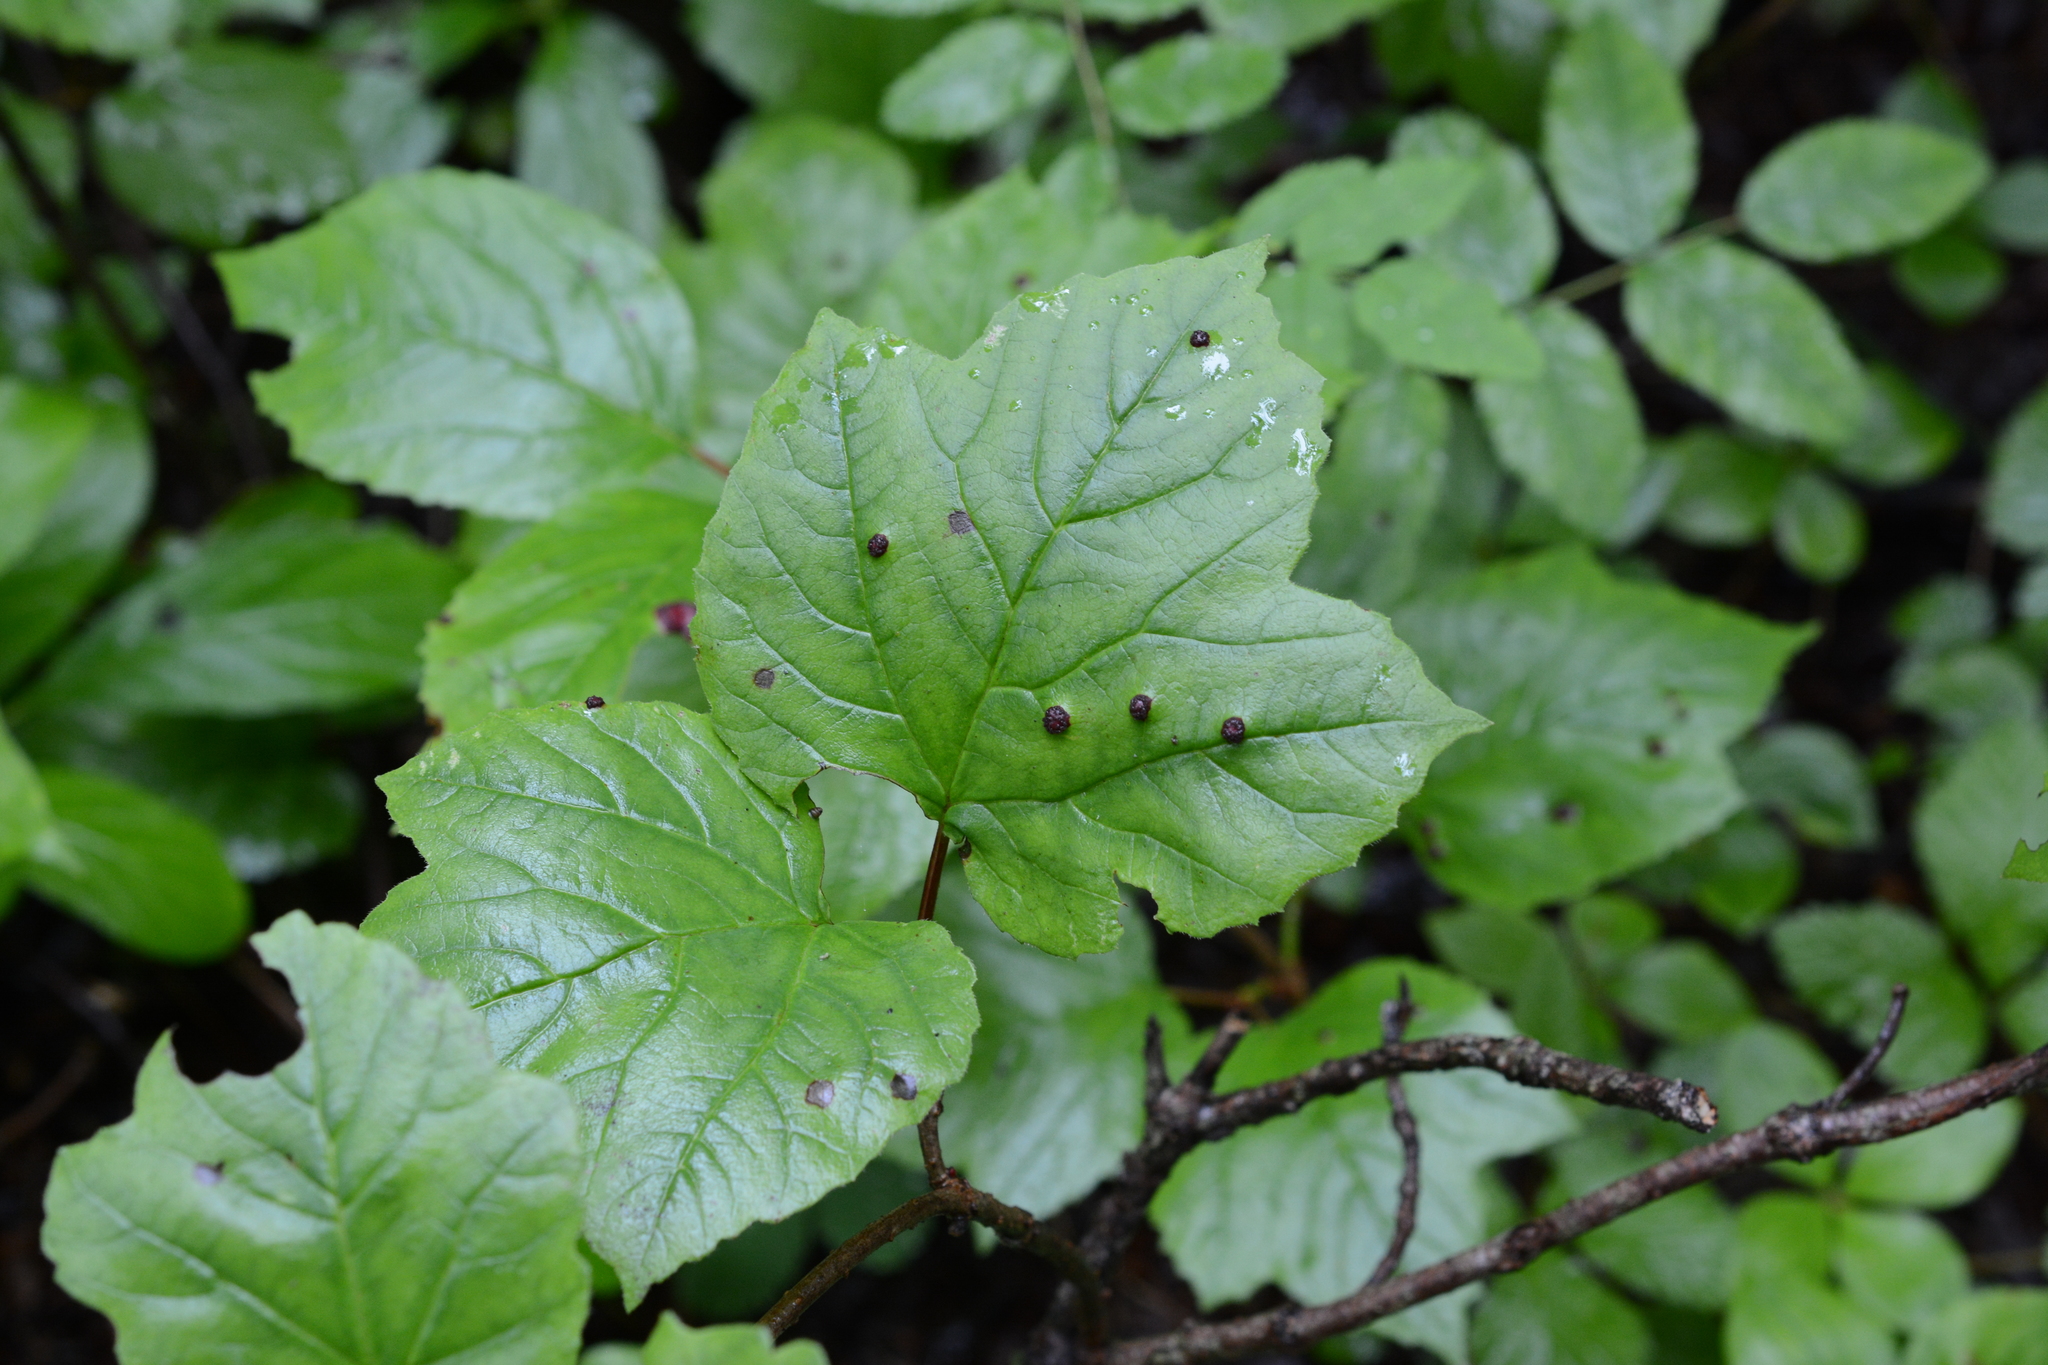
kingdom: Plantae
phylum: Tracheophyta
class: Magnoliopsida
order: Dipsacales
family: Viburnaceae
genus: Viburnum
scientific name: Viburnum edule
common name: Mooseberry
